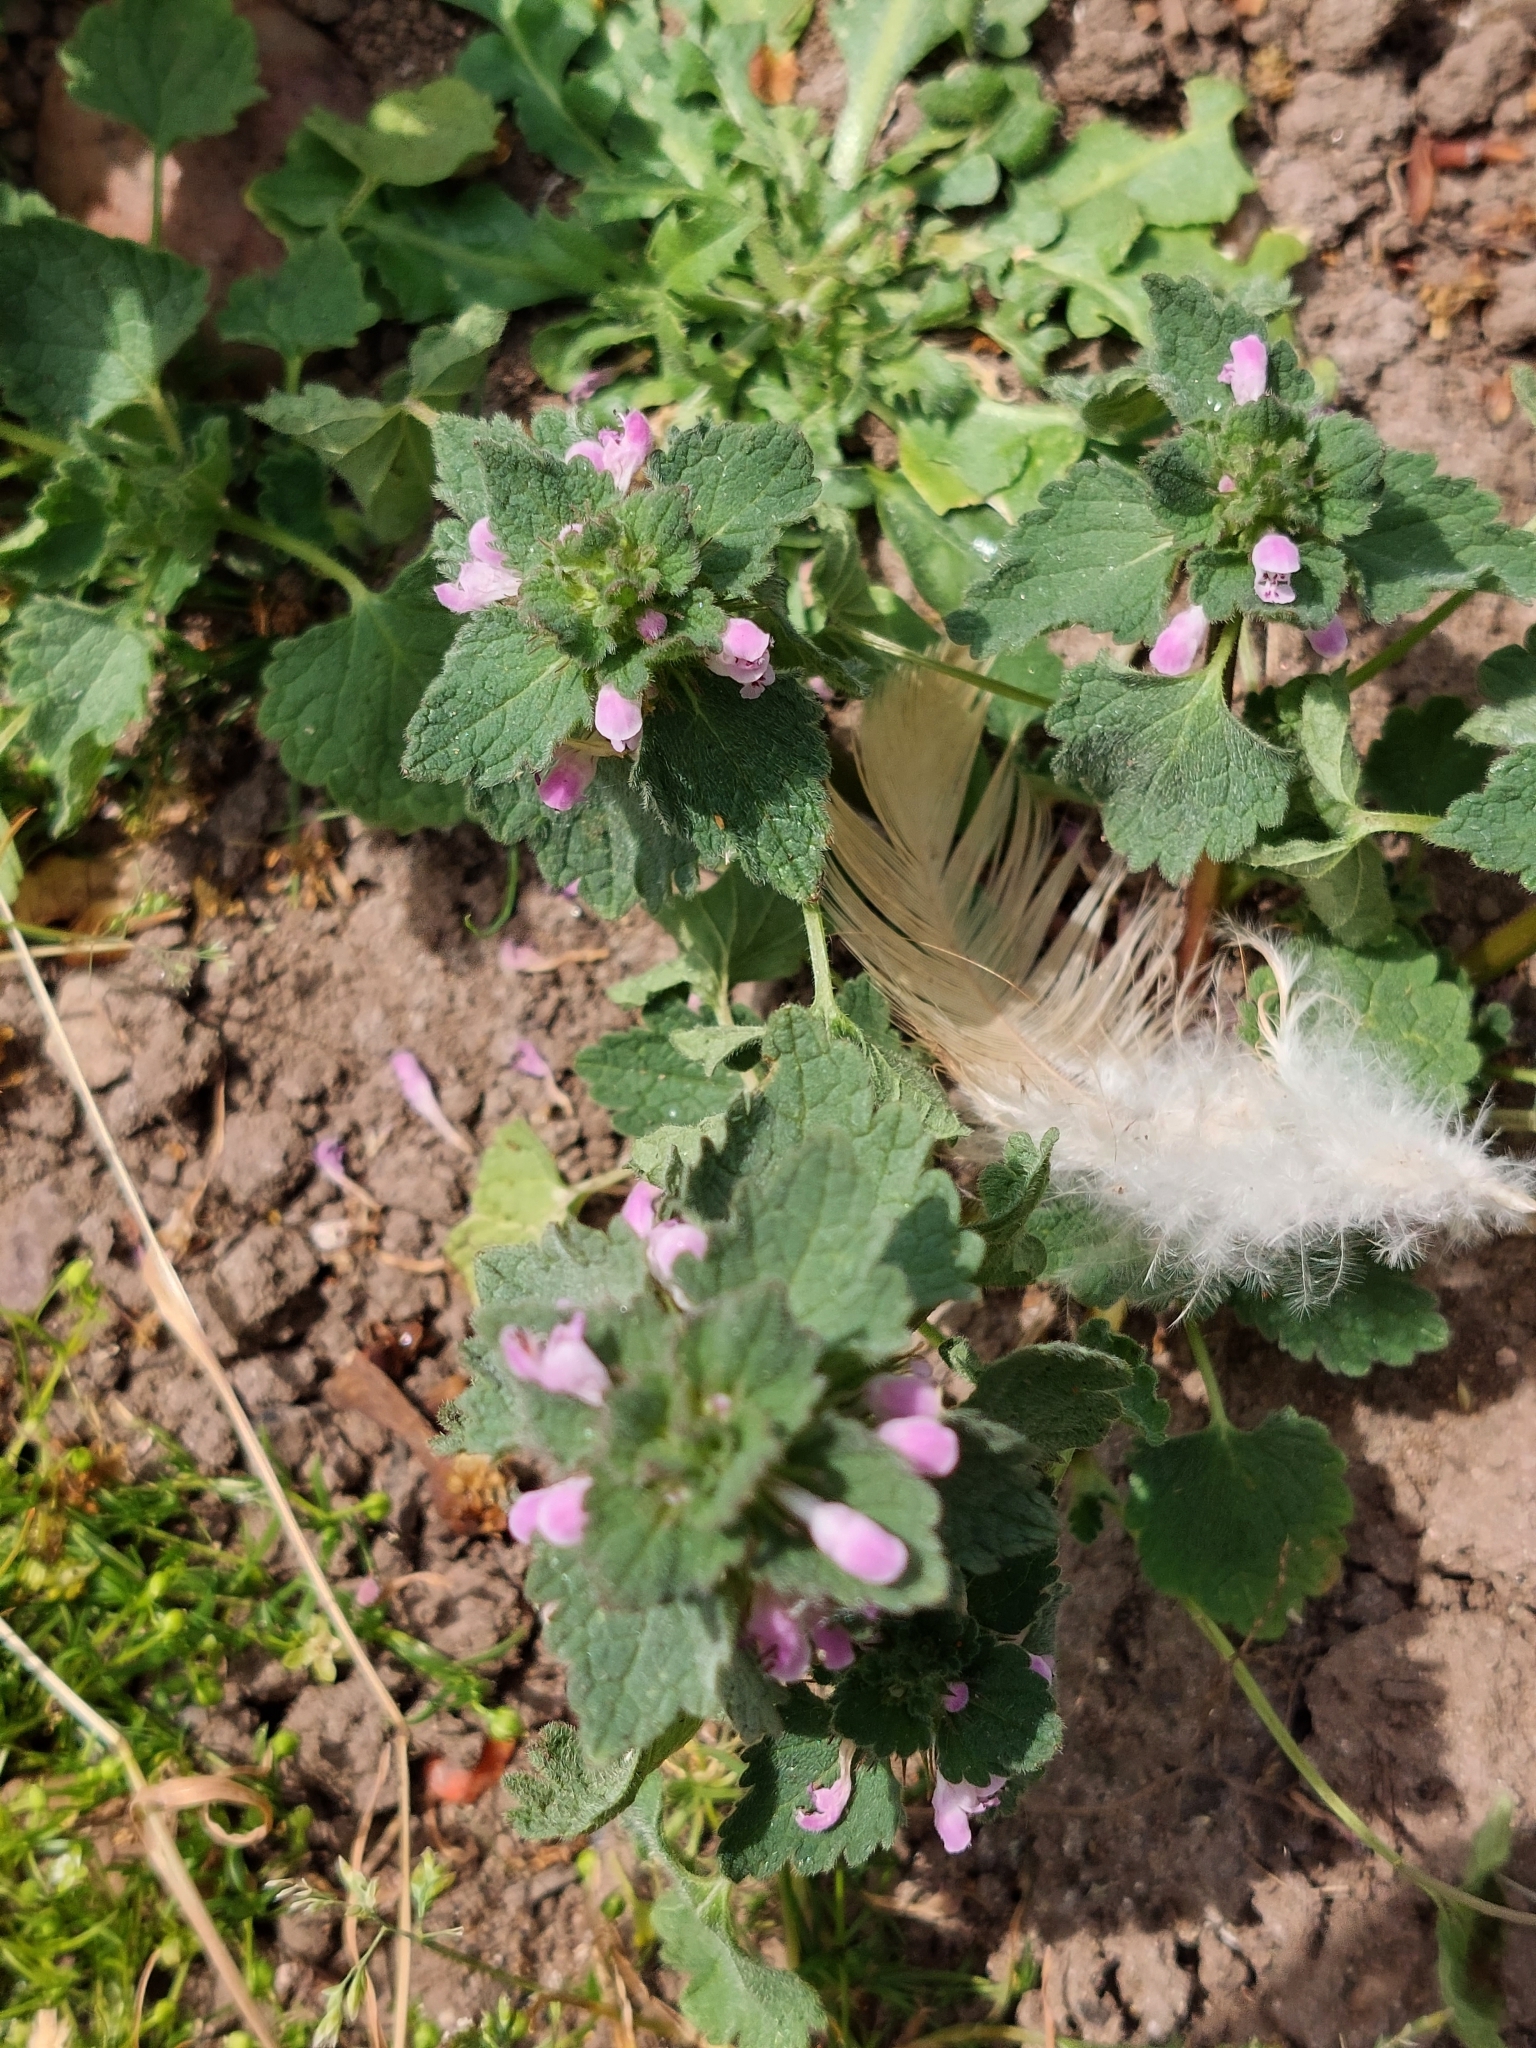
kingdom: Plantae
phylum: Tracheophyta
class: Magnoliopsida
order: Lamiales
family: Lamiaceae
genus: Lamium
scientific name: Lamium purpureum
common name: Red dead-nettle
